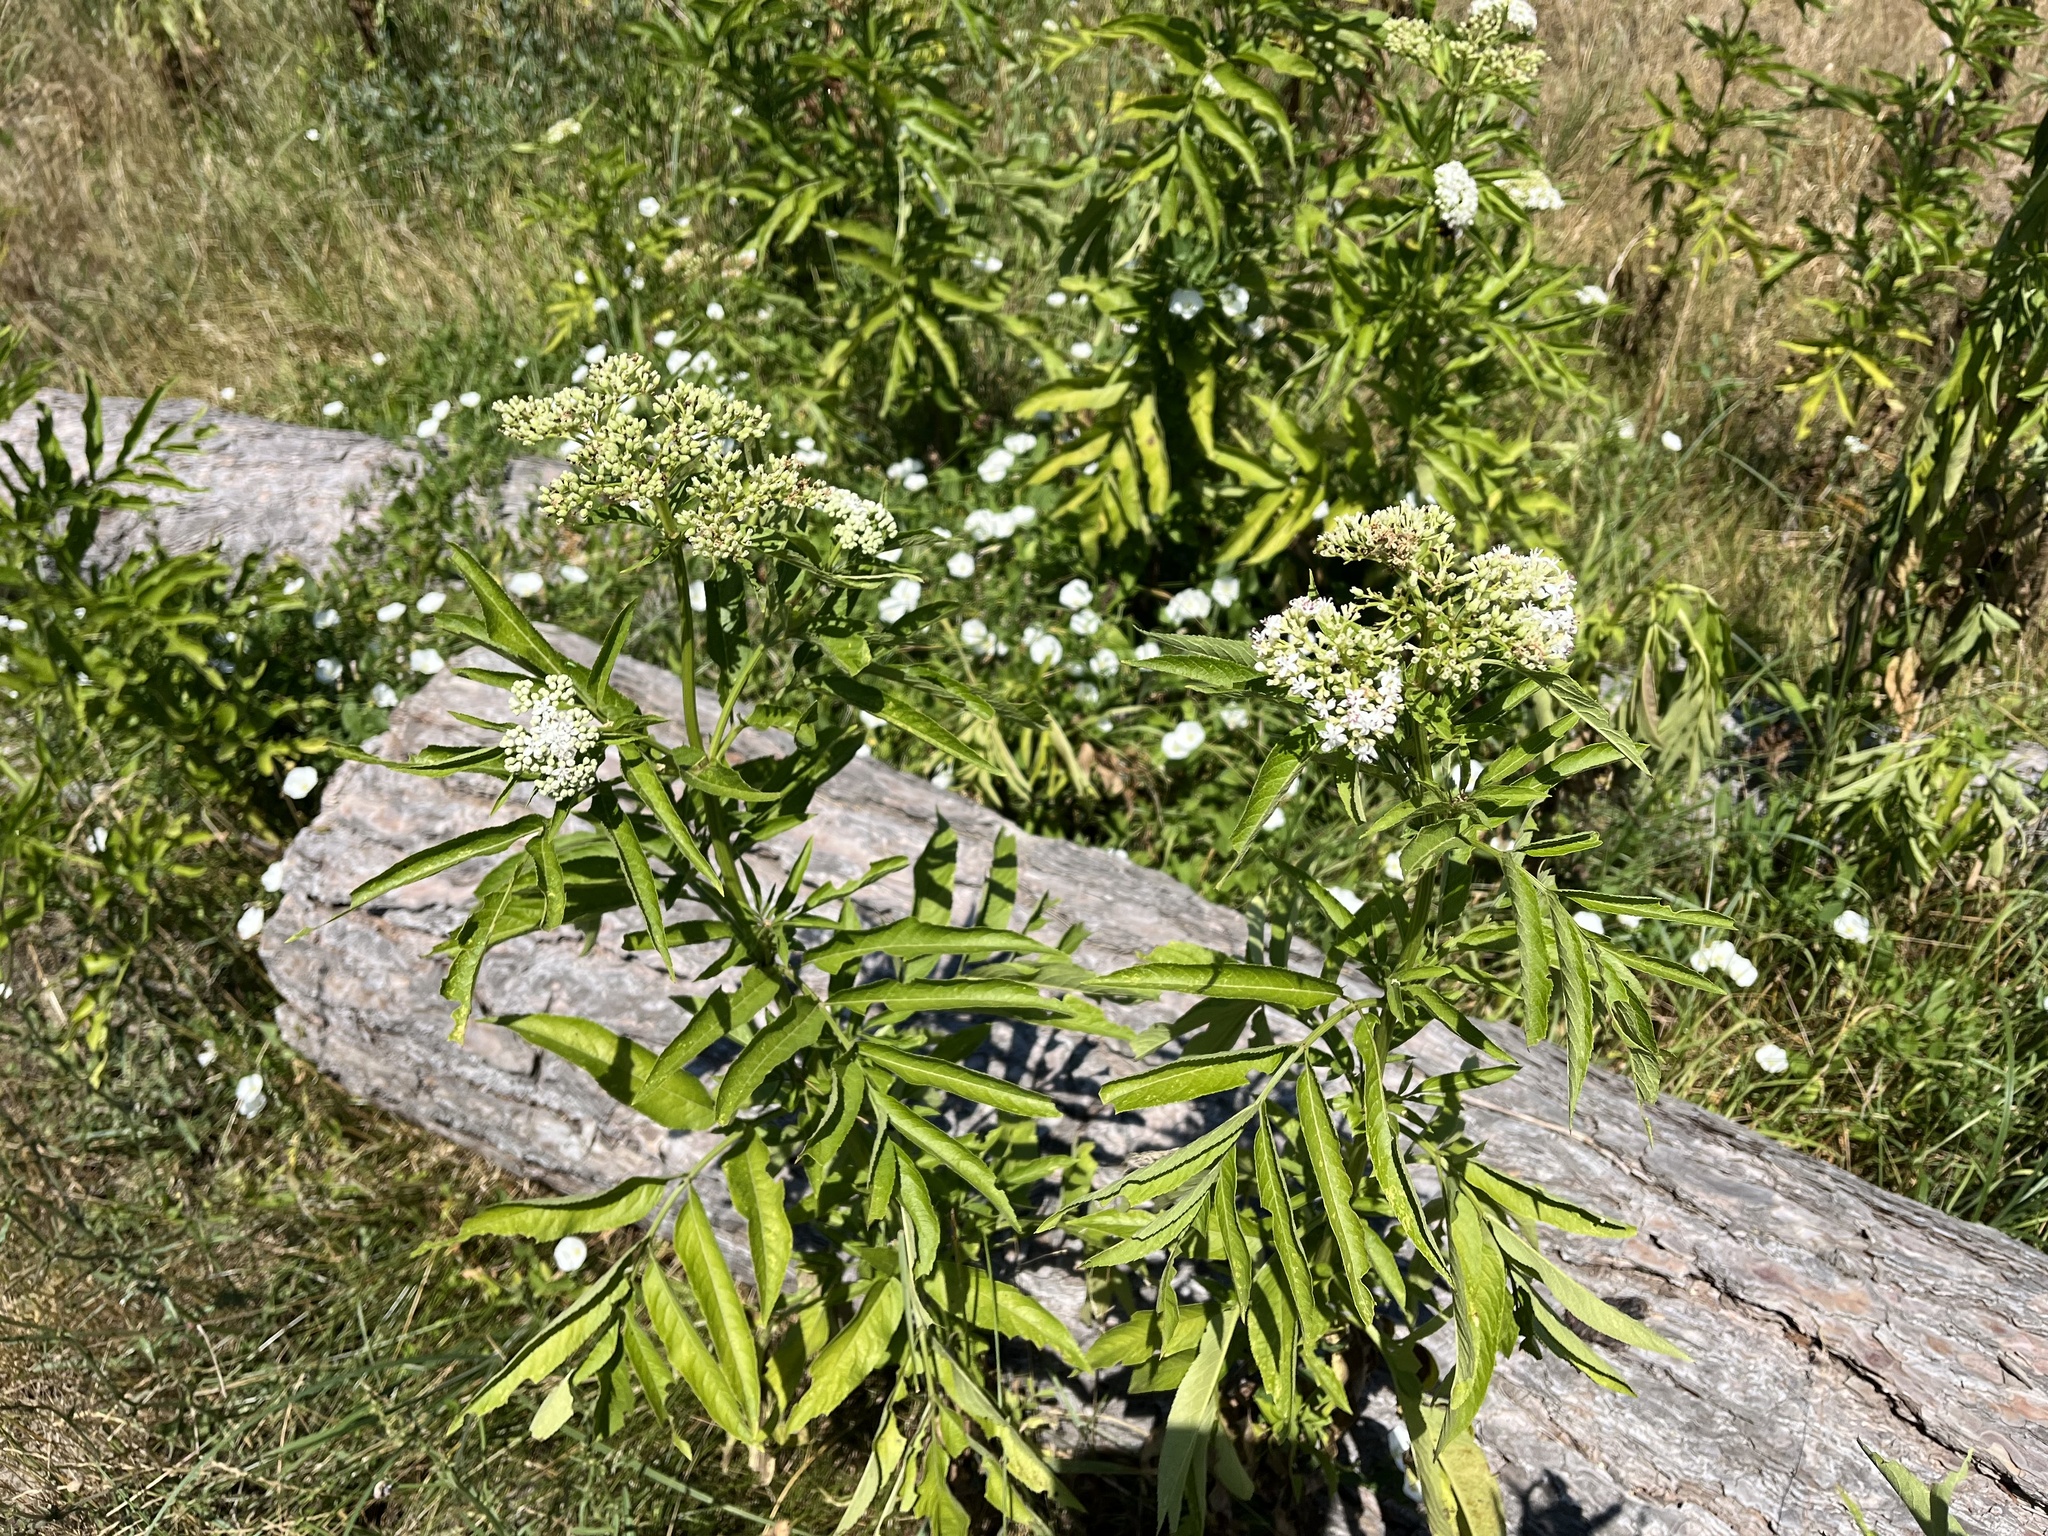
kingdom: Plantae
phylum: Tracheophyta
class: Magnoliopsida
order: Dipsacales
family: Viburnaceae
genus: Sambucus
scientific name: Sambucus ebulus
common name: Dwarf elder
